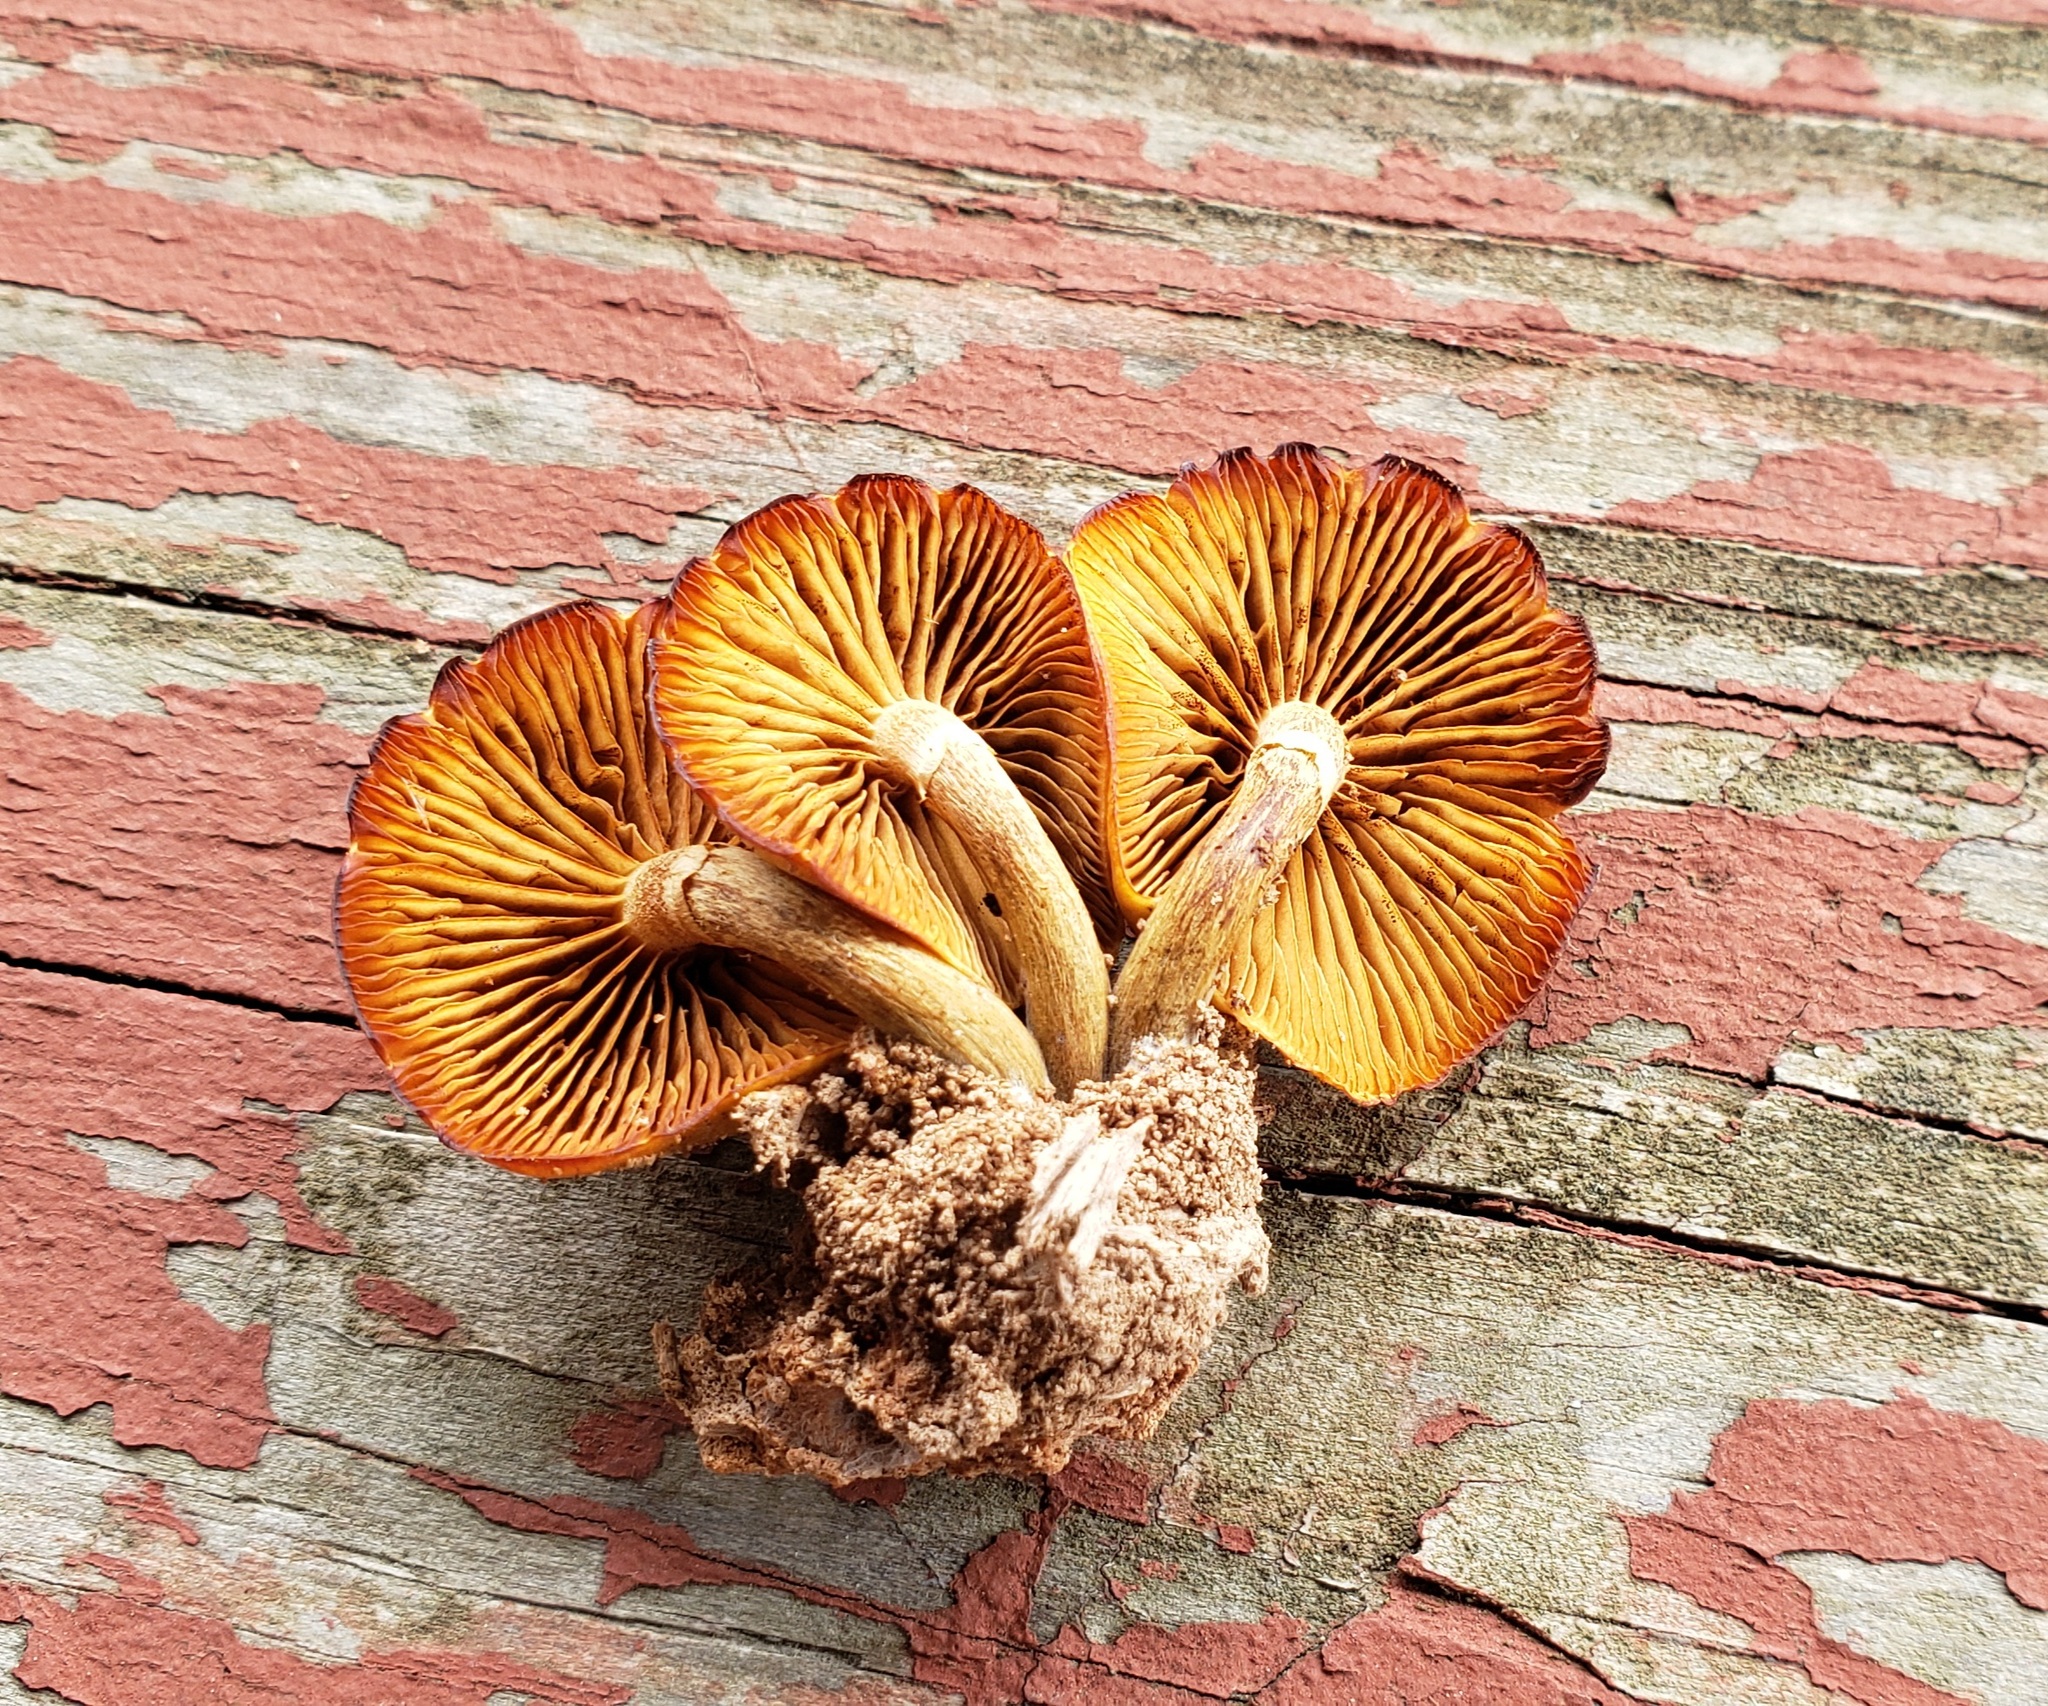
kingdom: Fungi
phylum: Basidiomycota
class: Agaricomycetes
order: Agaricales
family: Hymenogastraceae
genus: Galerina
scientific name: Galerina marginata
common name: Funeral bell
